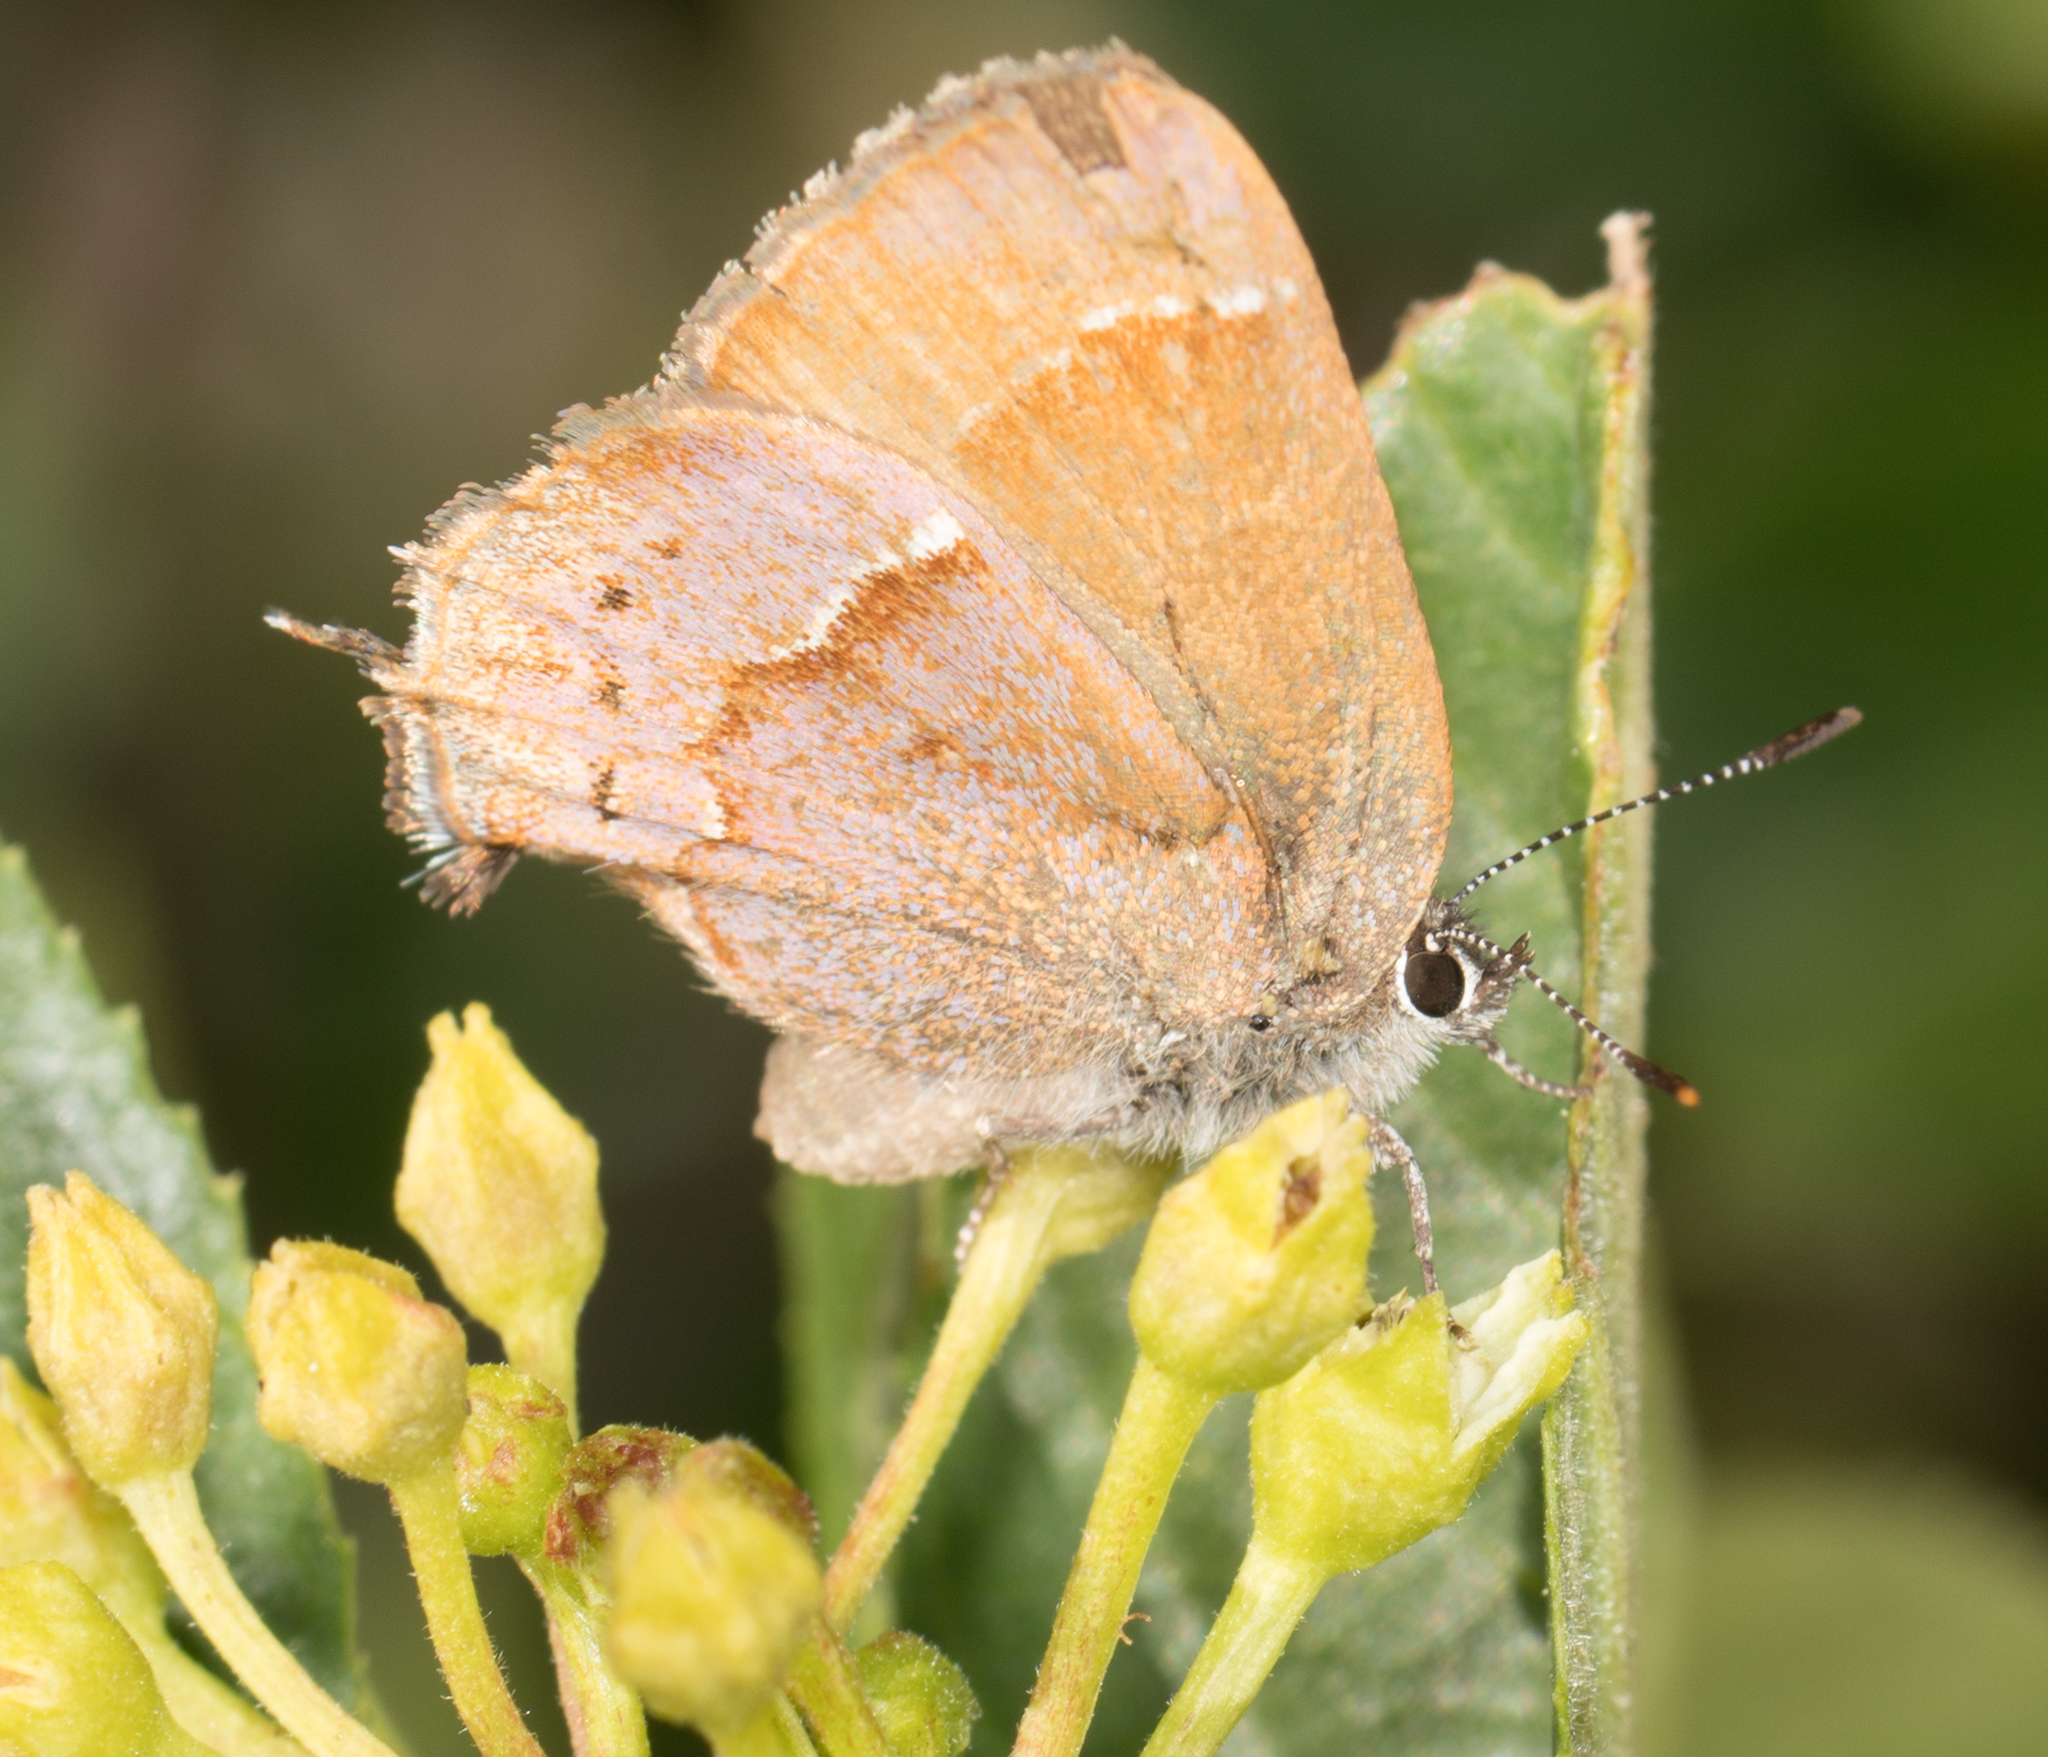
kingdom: Animalia
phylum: Arthropoda
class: Insecta
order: Lepidoptera
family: Lycaenidae
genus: Mitoura
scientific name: Mitoura gryneus
